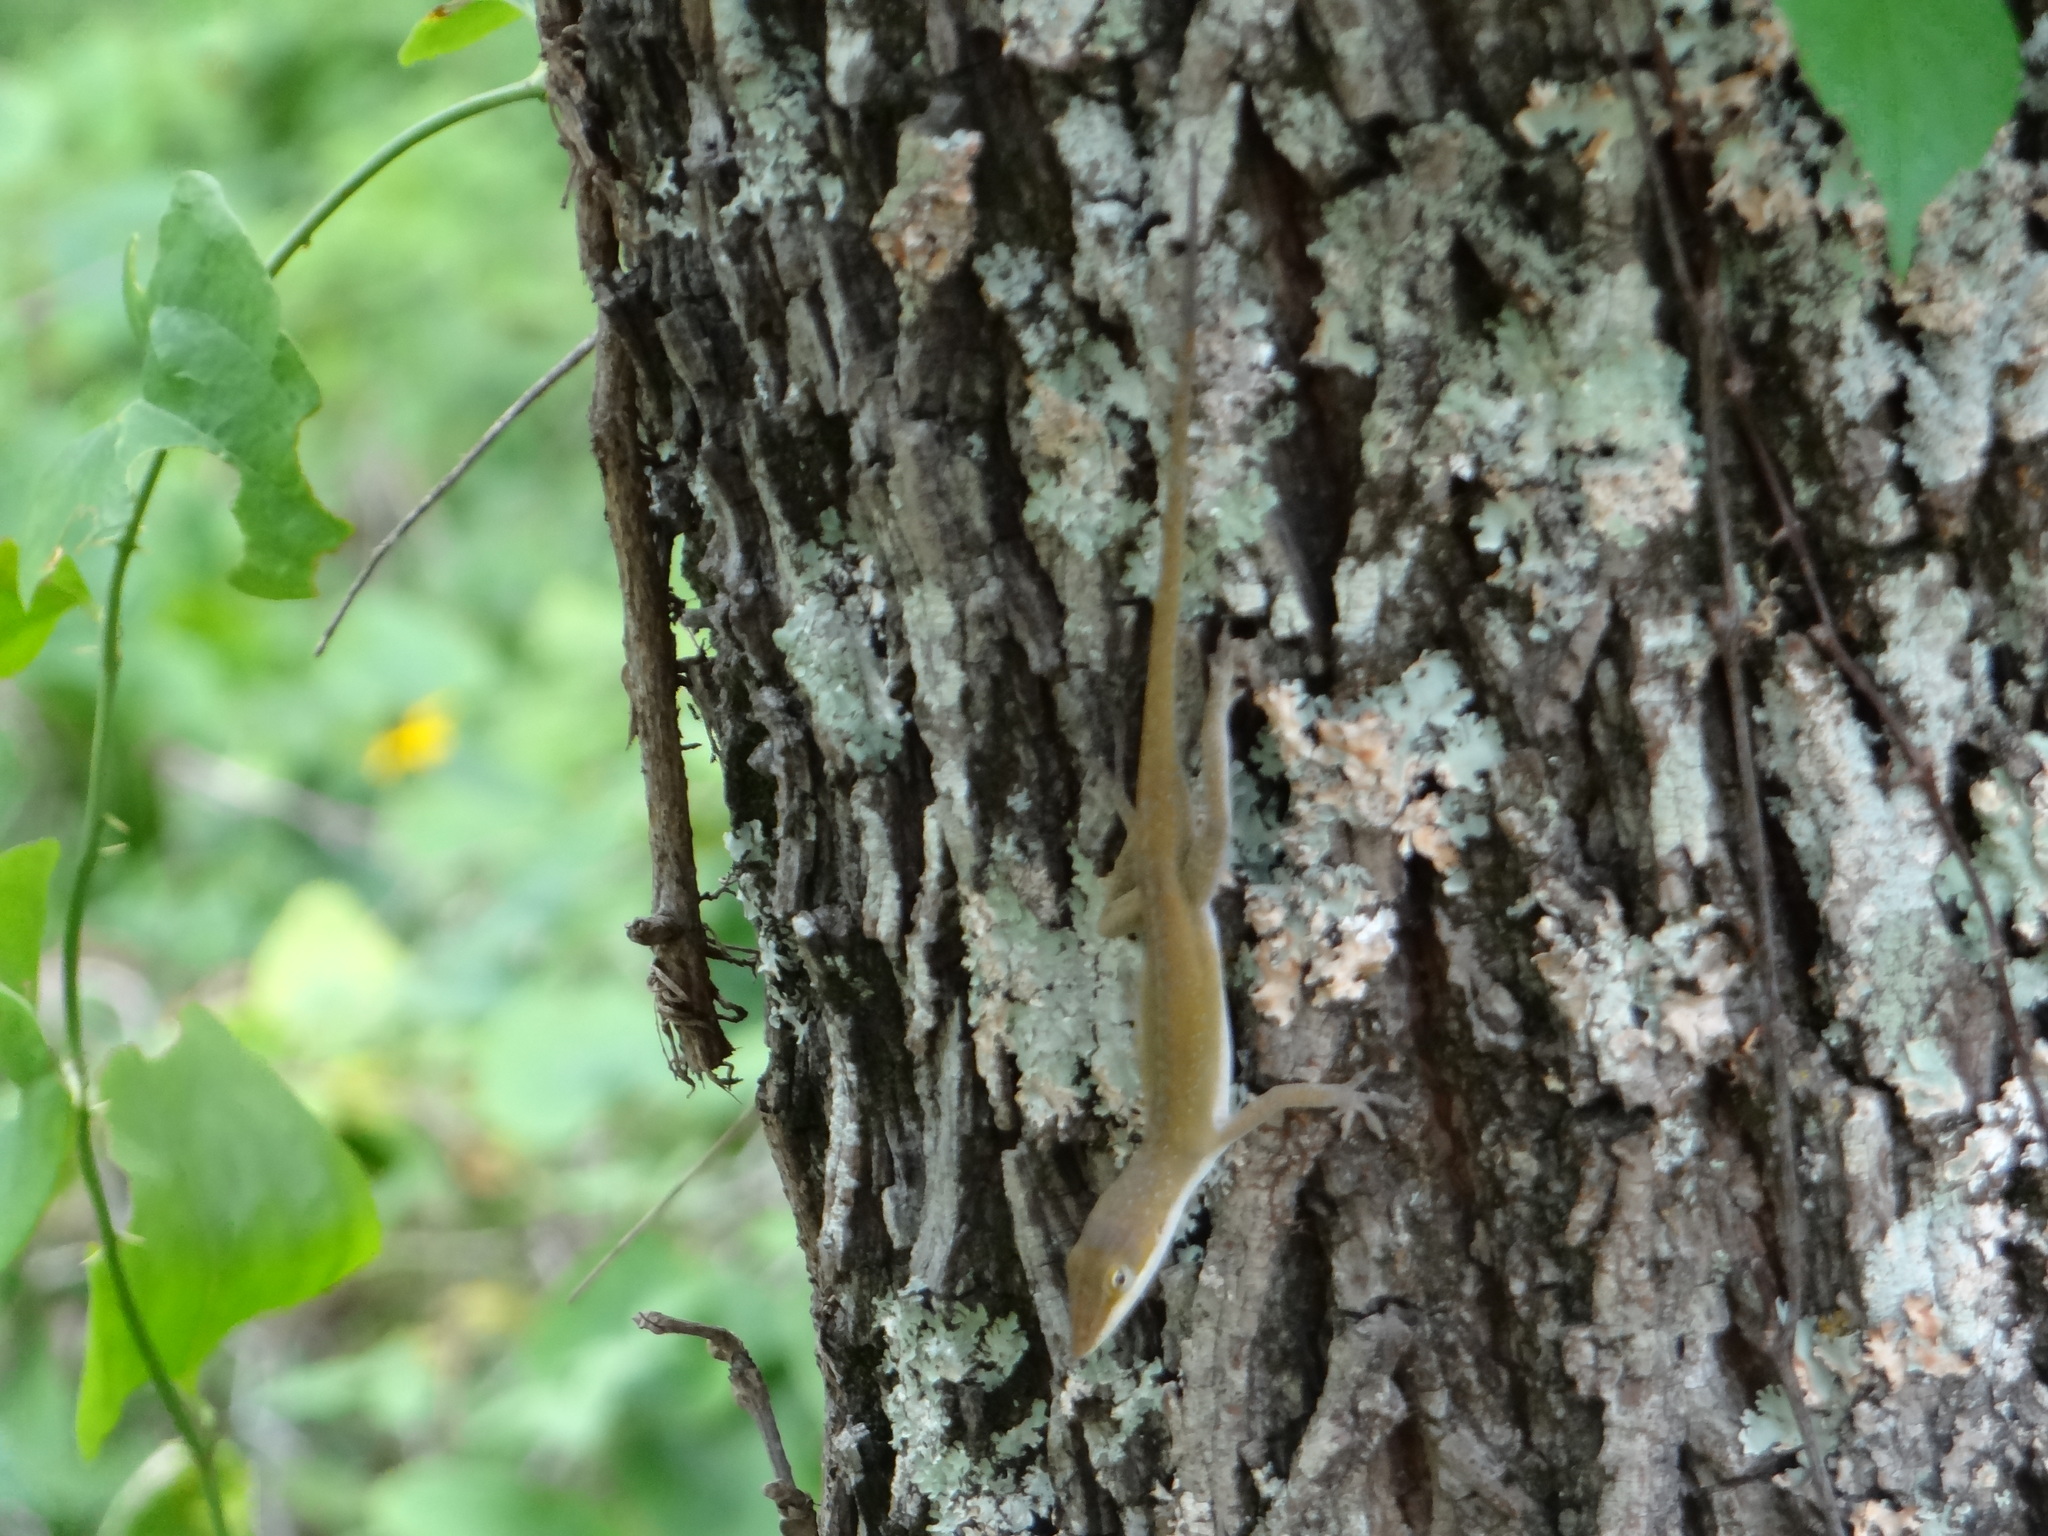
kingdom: Animalia
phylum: Chordata
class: Squamata
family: Dactyloidae
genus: Anolis
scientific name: Anolis carolinensis
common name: Green anole
